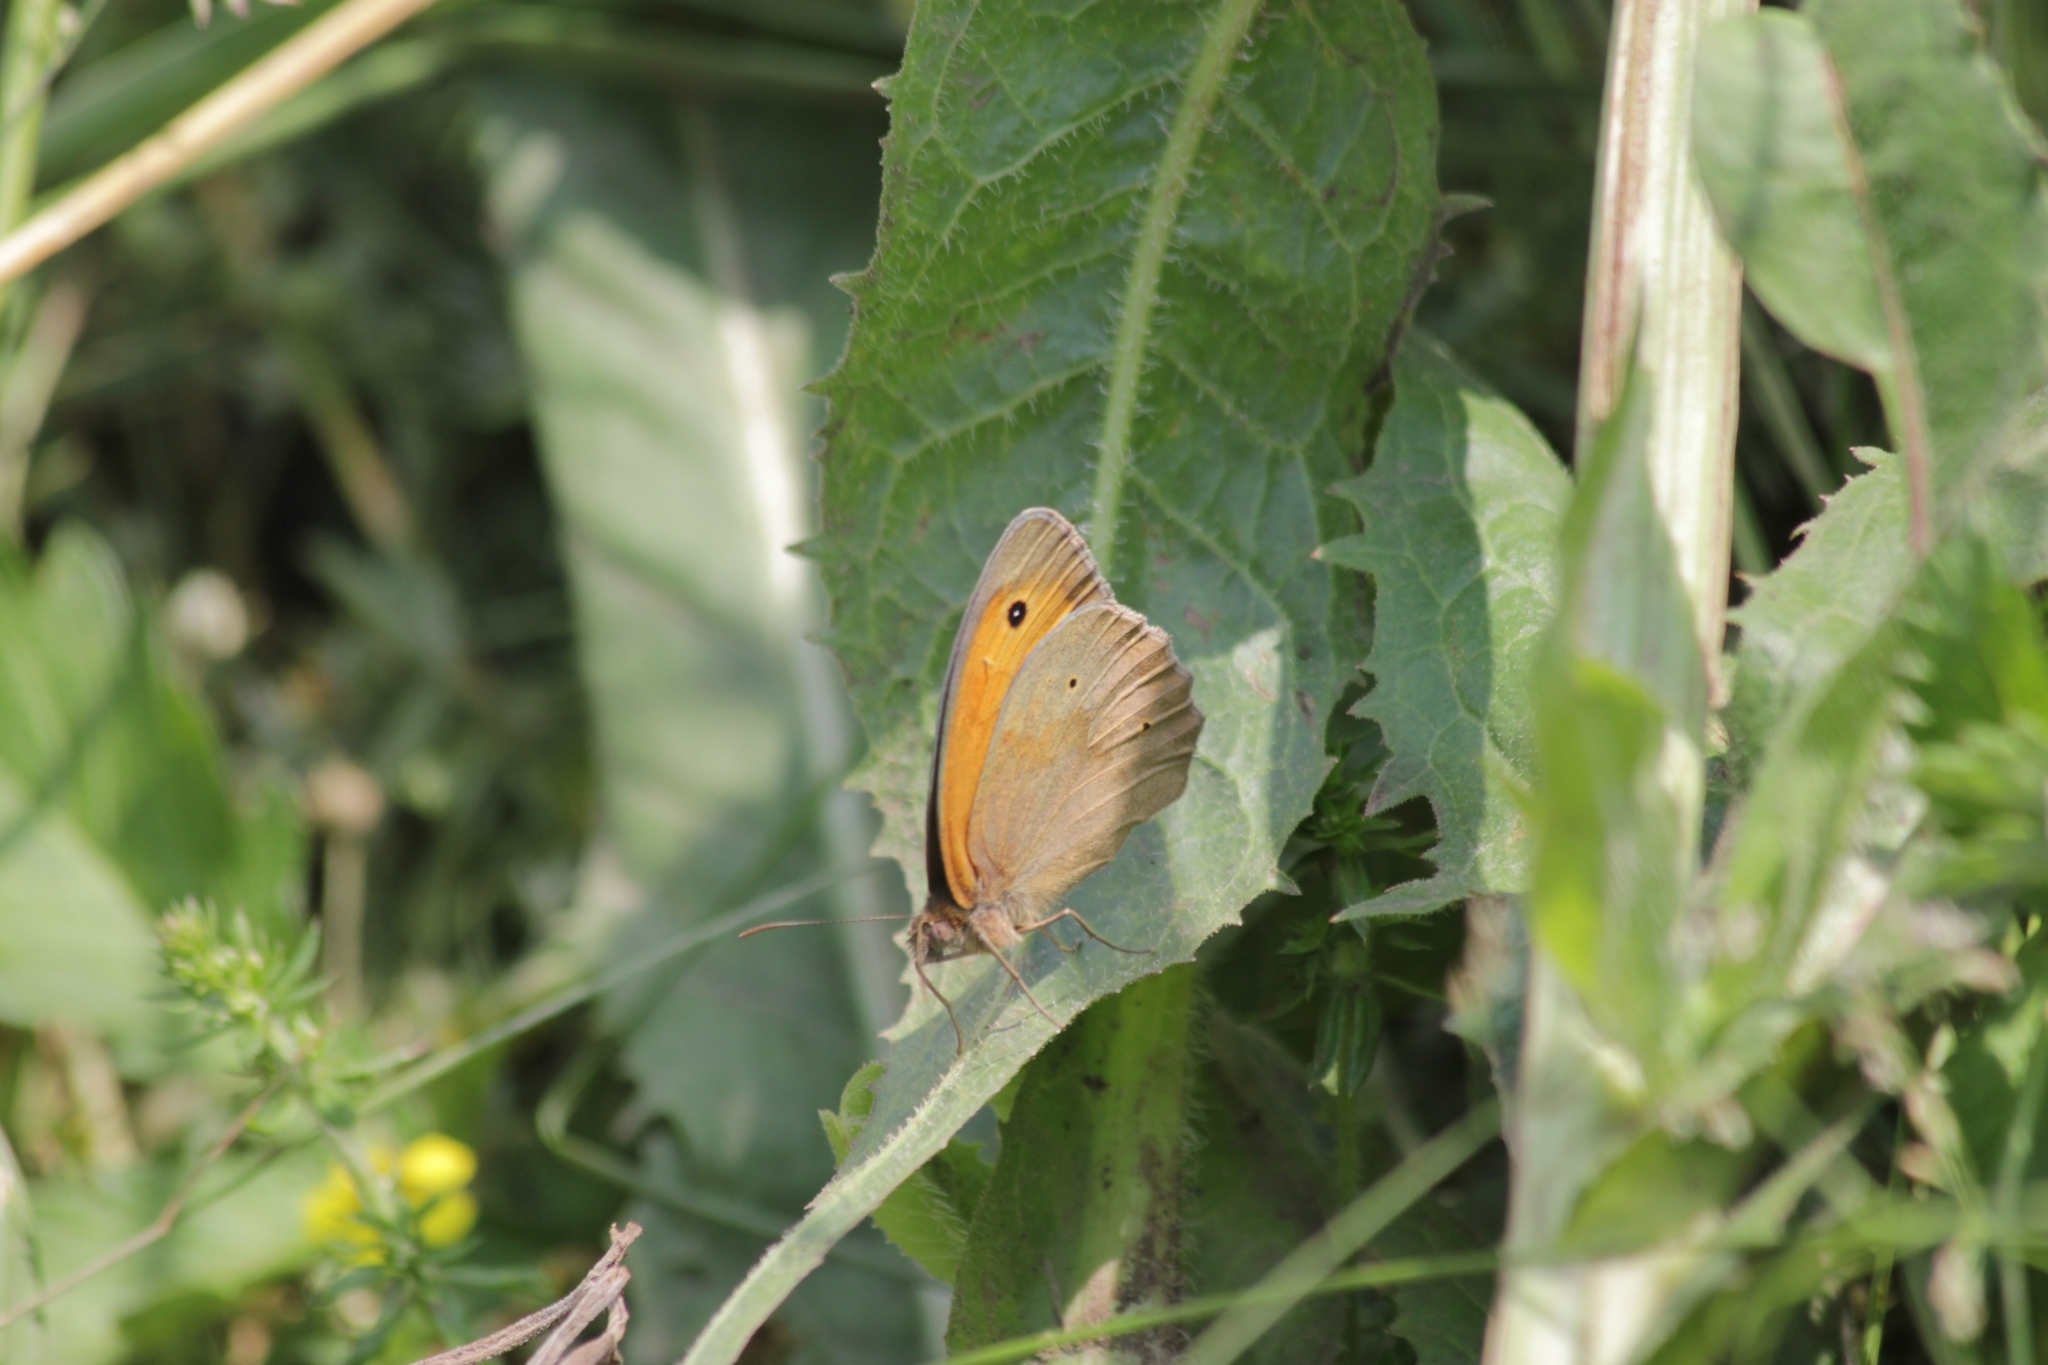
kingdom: Animalia
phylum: Arthropoda
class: Insecta
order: Lepidoptera
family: Nymphalidae
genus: Maniola
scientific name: Maniola jurtina
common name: Meadow brown
